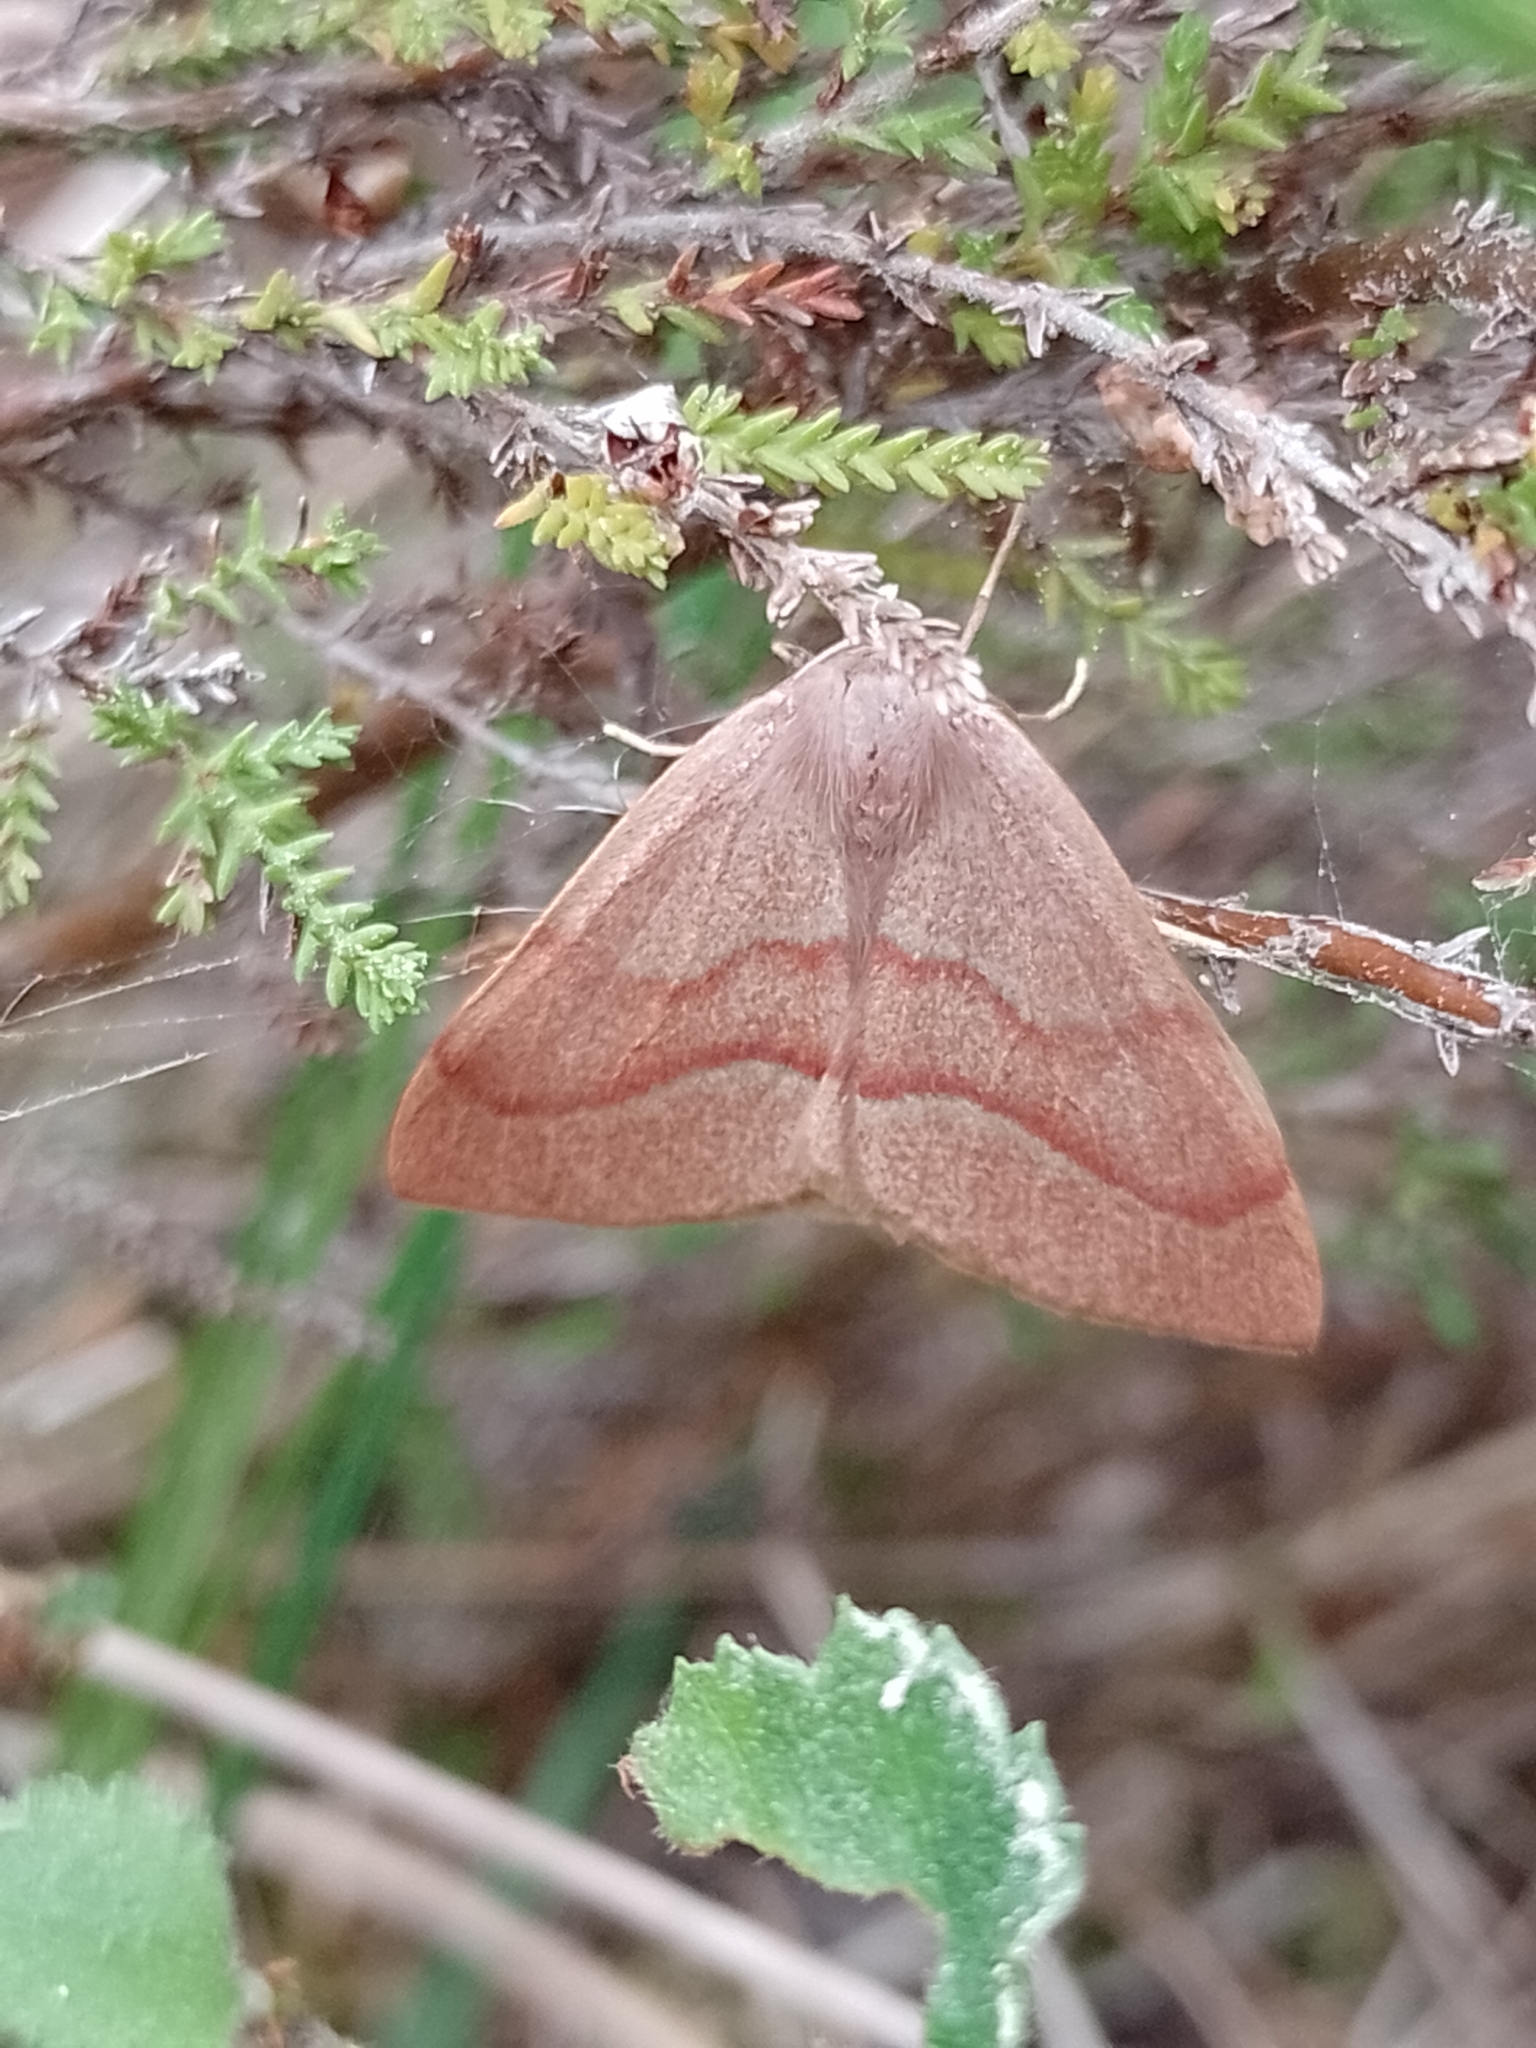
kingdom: Animalia
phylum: Arthropoda
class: Insecta
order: Lepidoptera
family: Geometridae
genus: Hylaea
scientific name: Hylaea fasciaria
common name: Barred red
